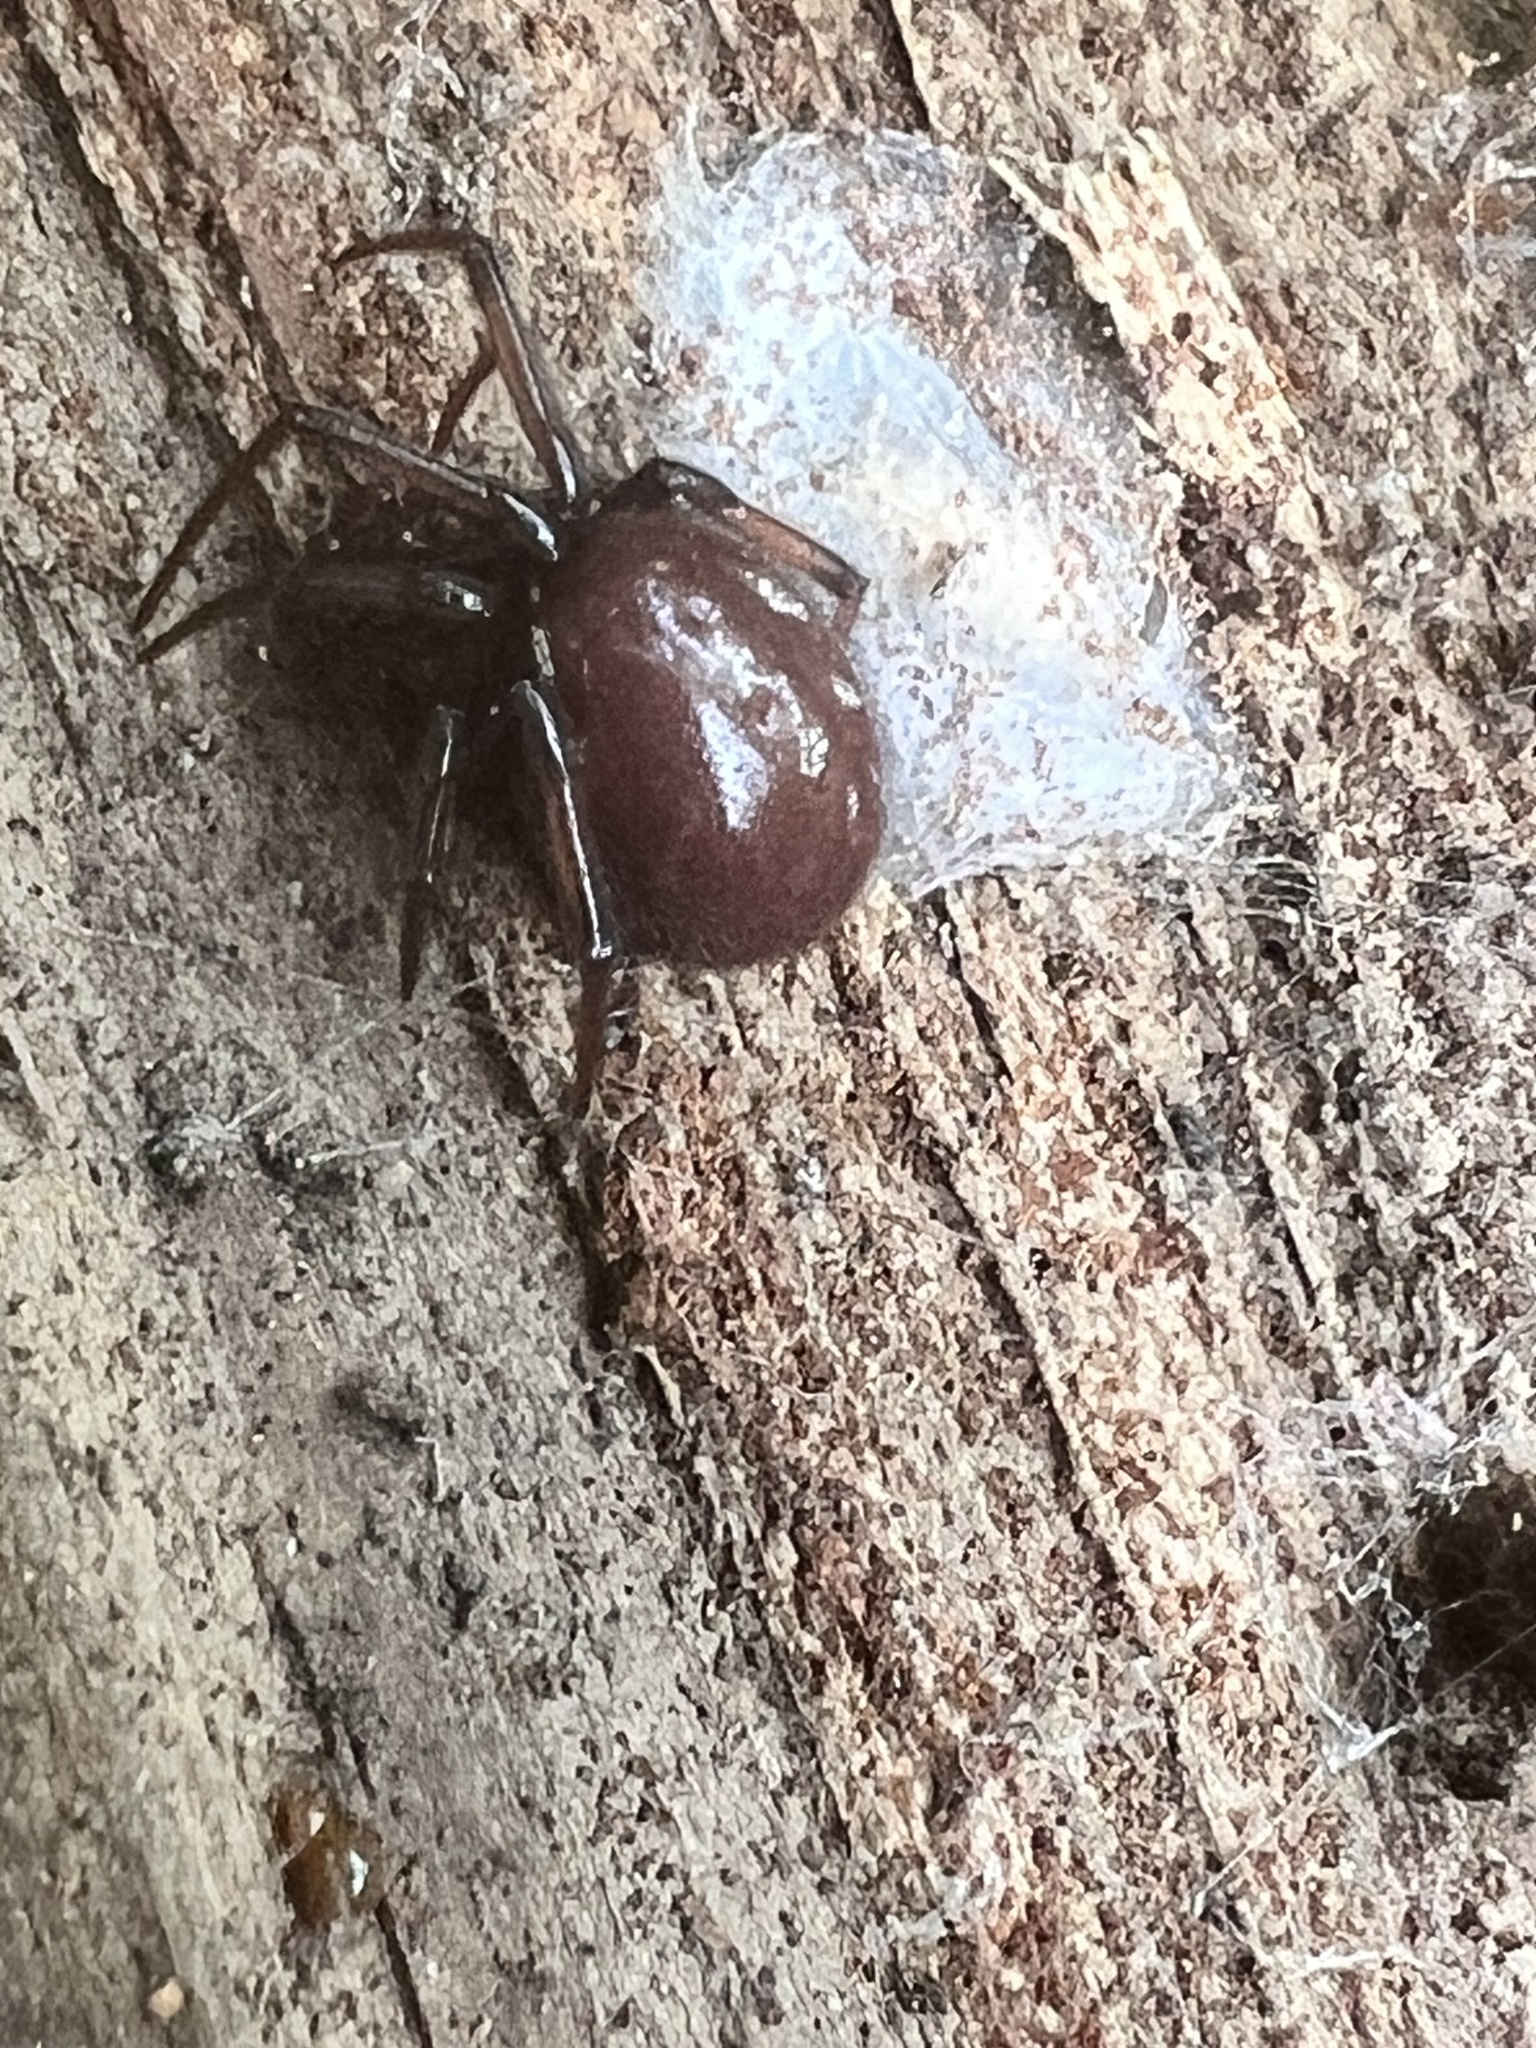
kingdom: Animalia
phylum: Arthropoda
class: Arachnida
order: Araneae
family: Theridiidae
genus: Steatoda
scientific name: Steatoda capensis
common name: Cobweb weaver
